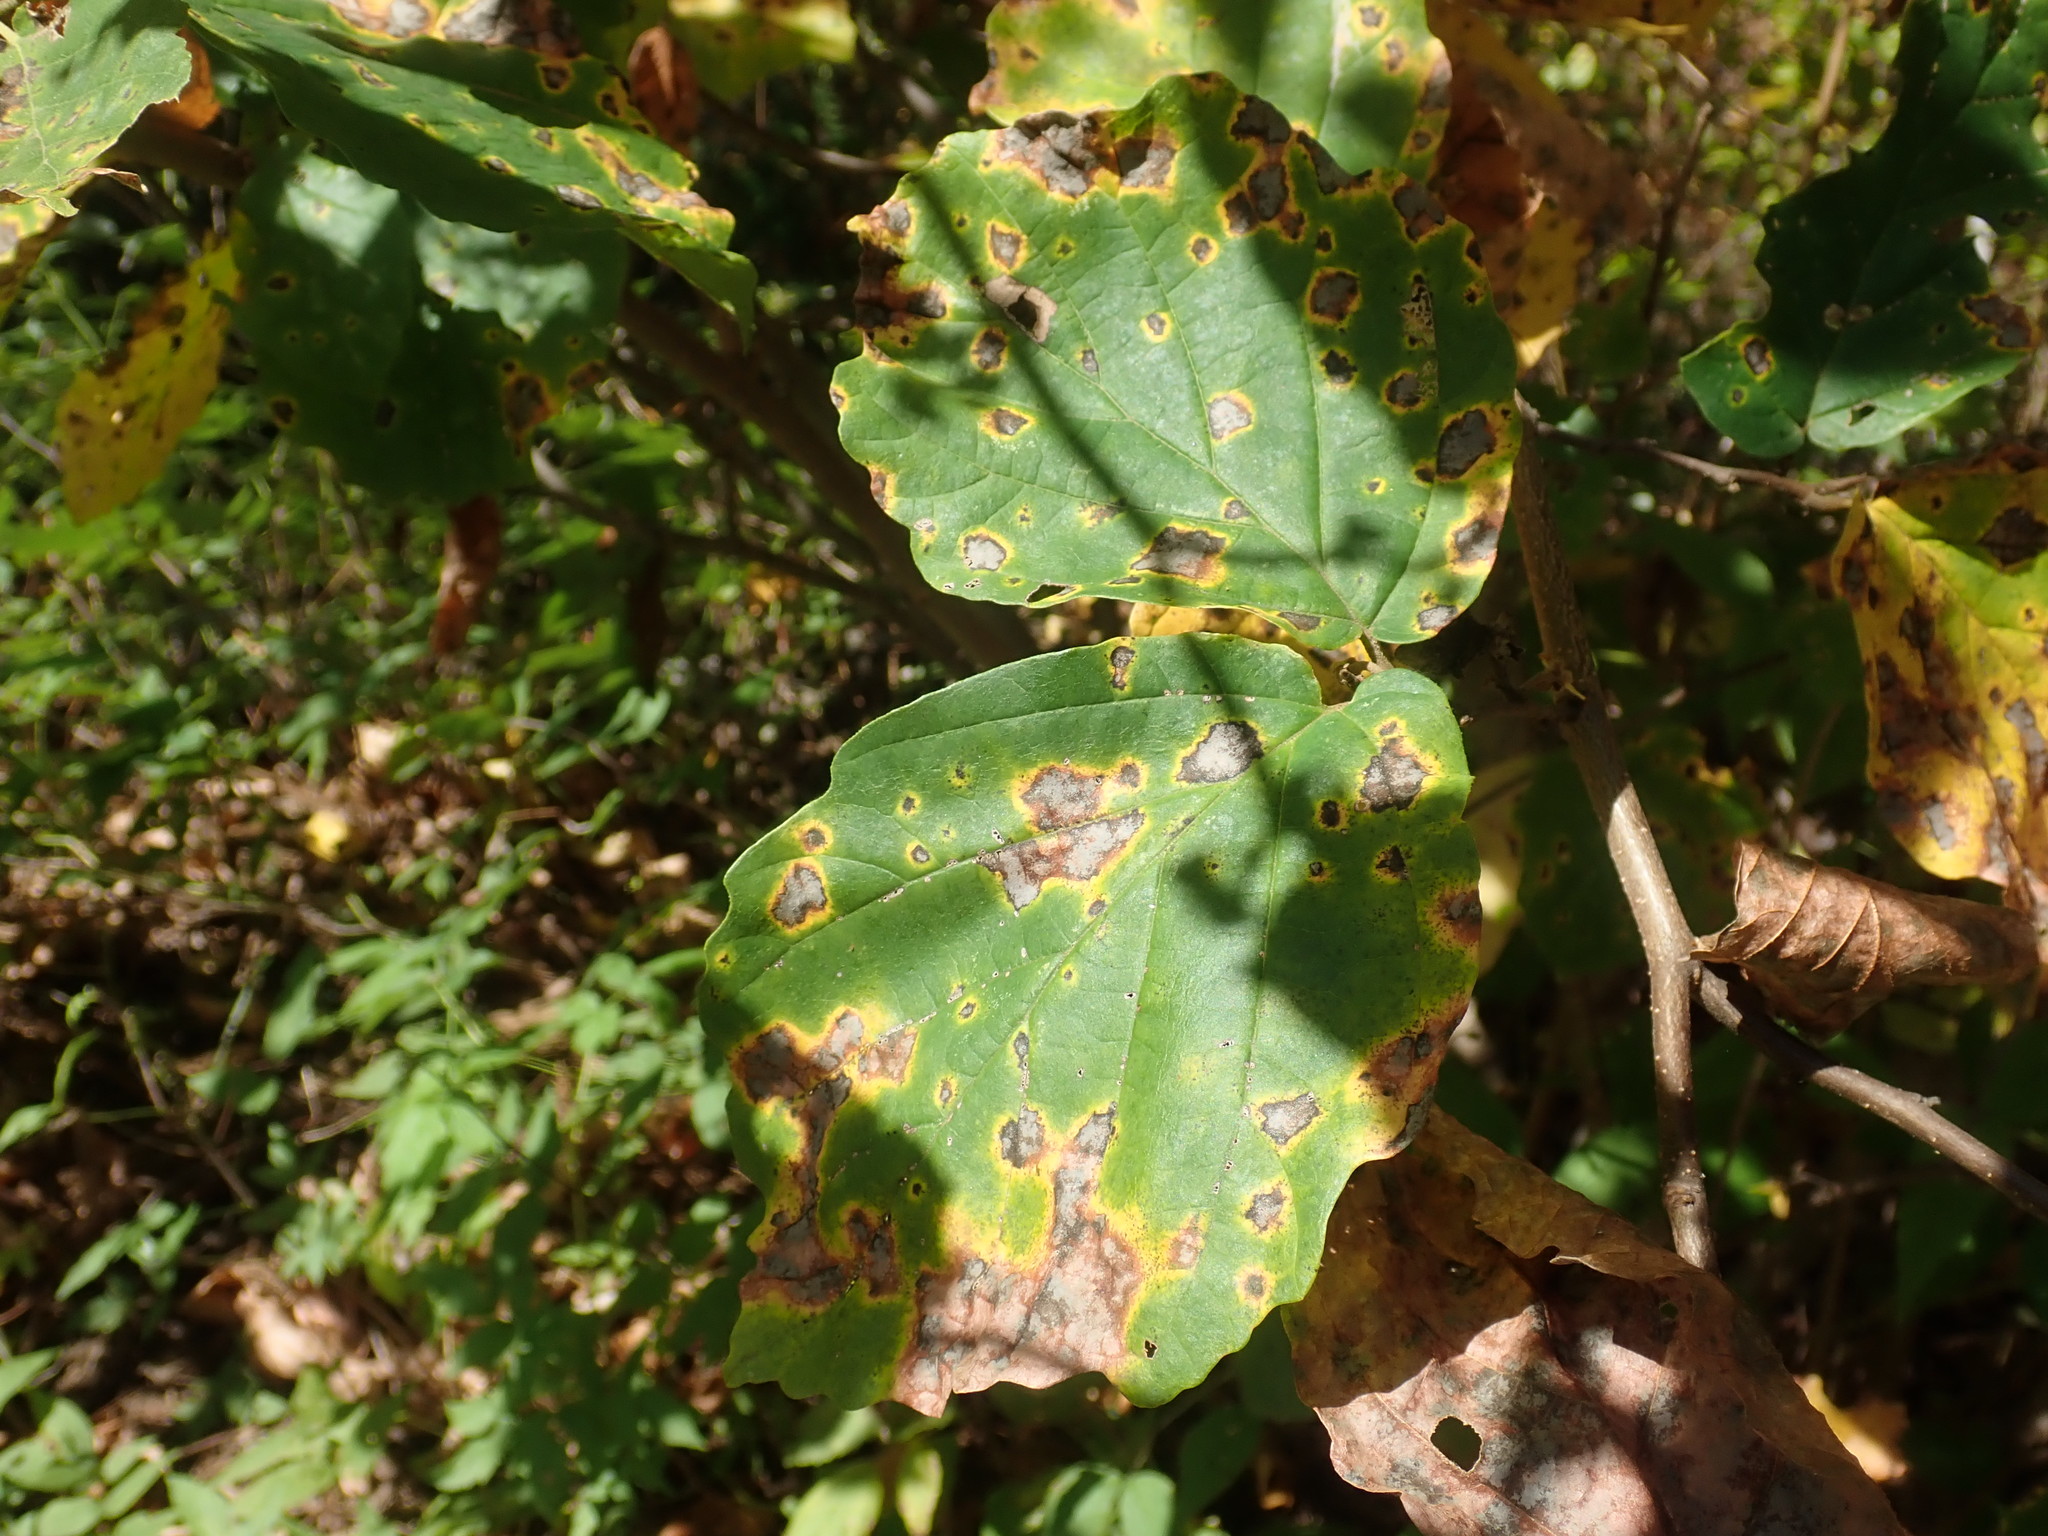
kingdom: Plantae
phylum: Tracheophyta
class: Magnoliopsida
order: Saxifragales
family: Hamamelidaceae
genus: Hamamelis
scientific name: Hamamelis virginiana
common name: Witch-hazel
